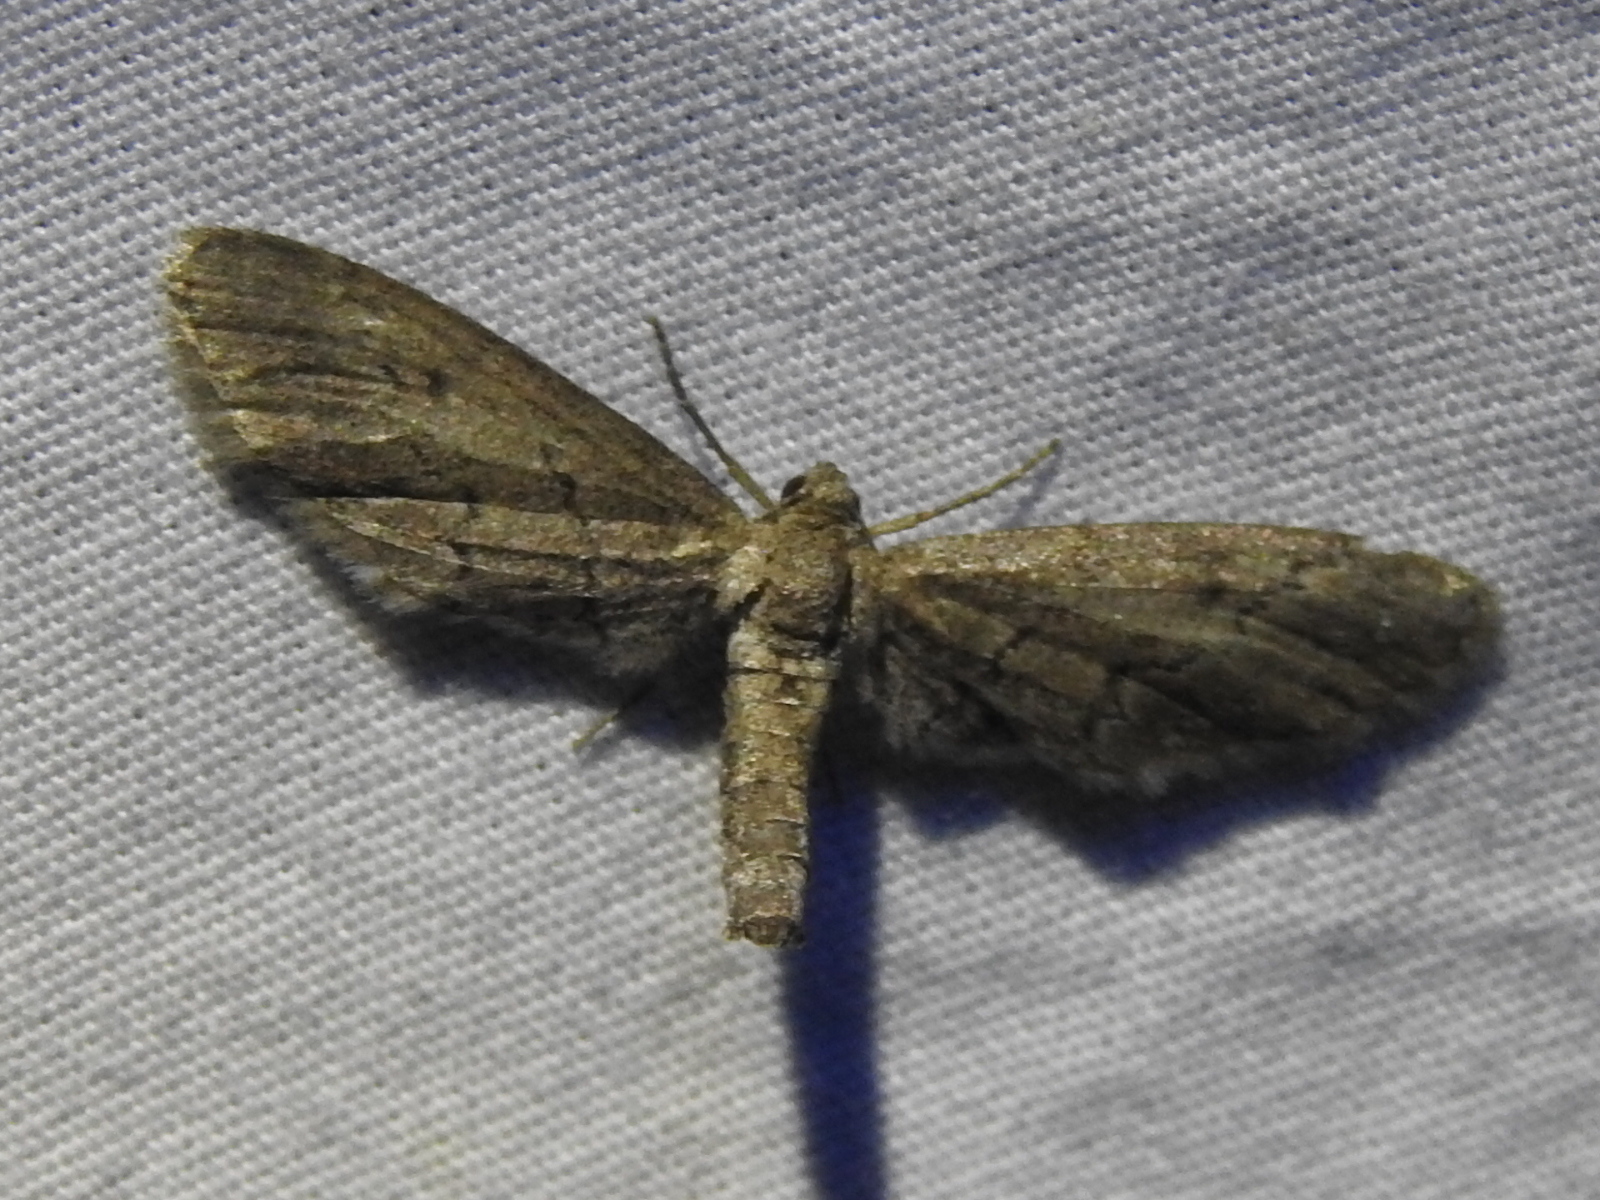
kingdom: Animalia
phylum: Arthropoda
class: Insecta
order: Lepidoptera
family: Geometridae
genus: Glaucina
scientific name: Glaucina erroraria
